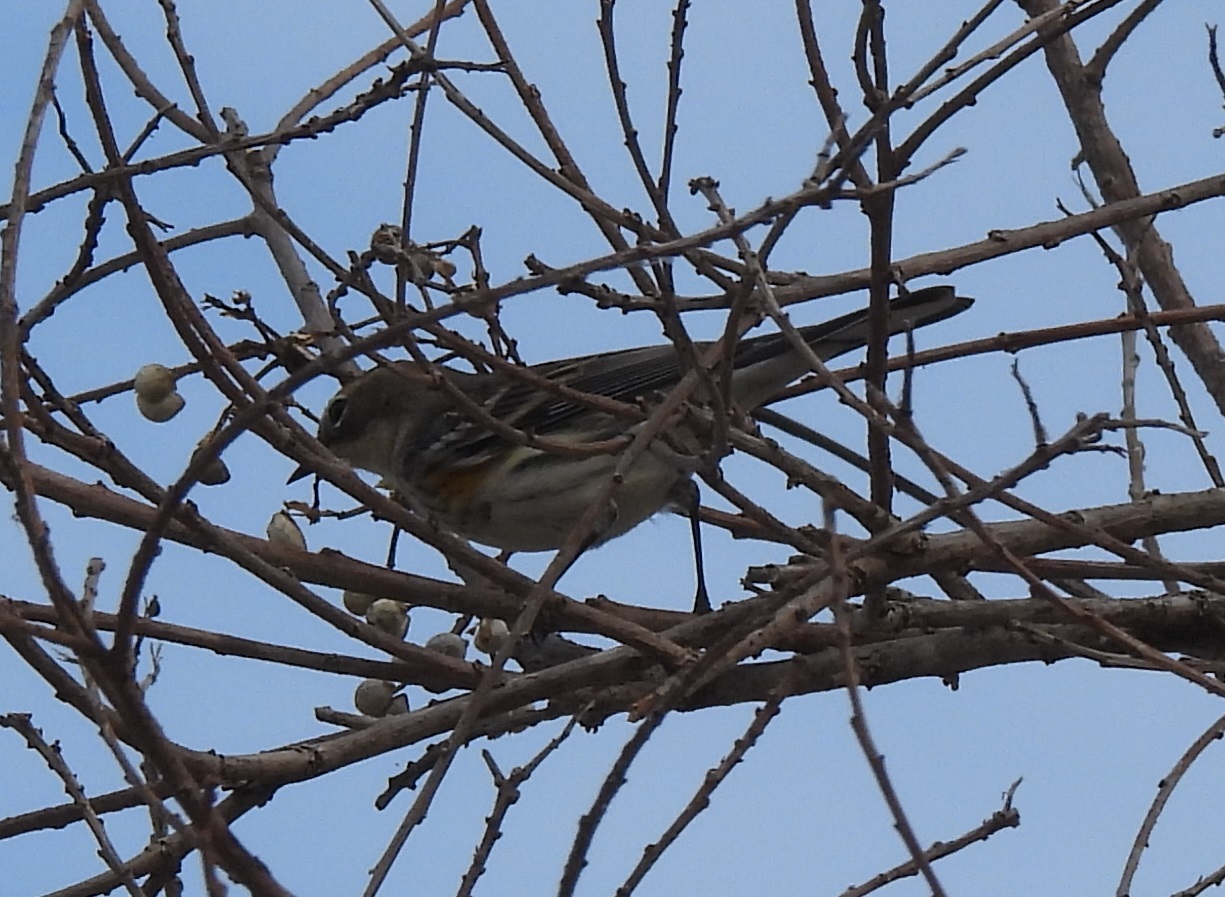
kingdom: Animalia
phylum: Chordata
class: Aves
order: Passeriformes
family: Parulidae
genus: Setophaga
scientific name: Setophaga coronata
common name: Myrtle warbler
